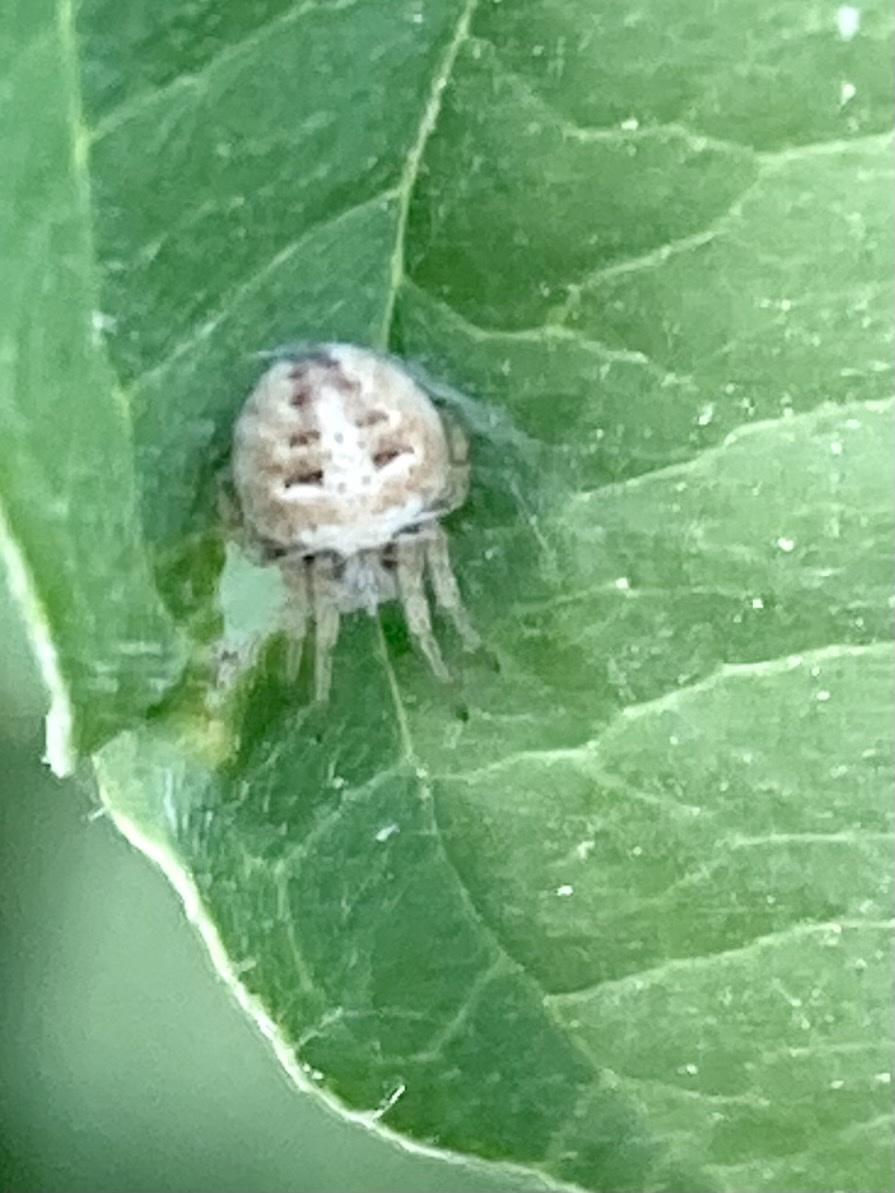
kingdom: Animalia
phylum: Arthropoda
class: Arachnida
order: Araneae
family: Araneidae
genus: Agalenatea
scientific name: Agalenatea redii
